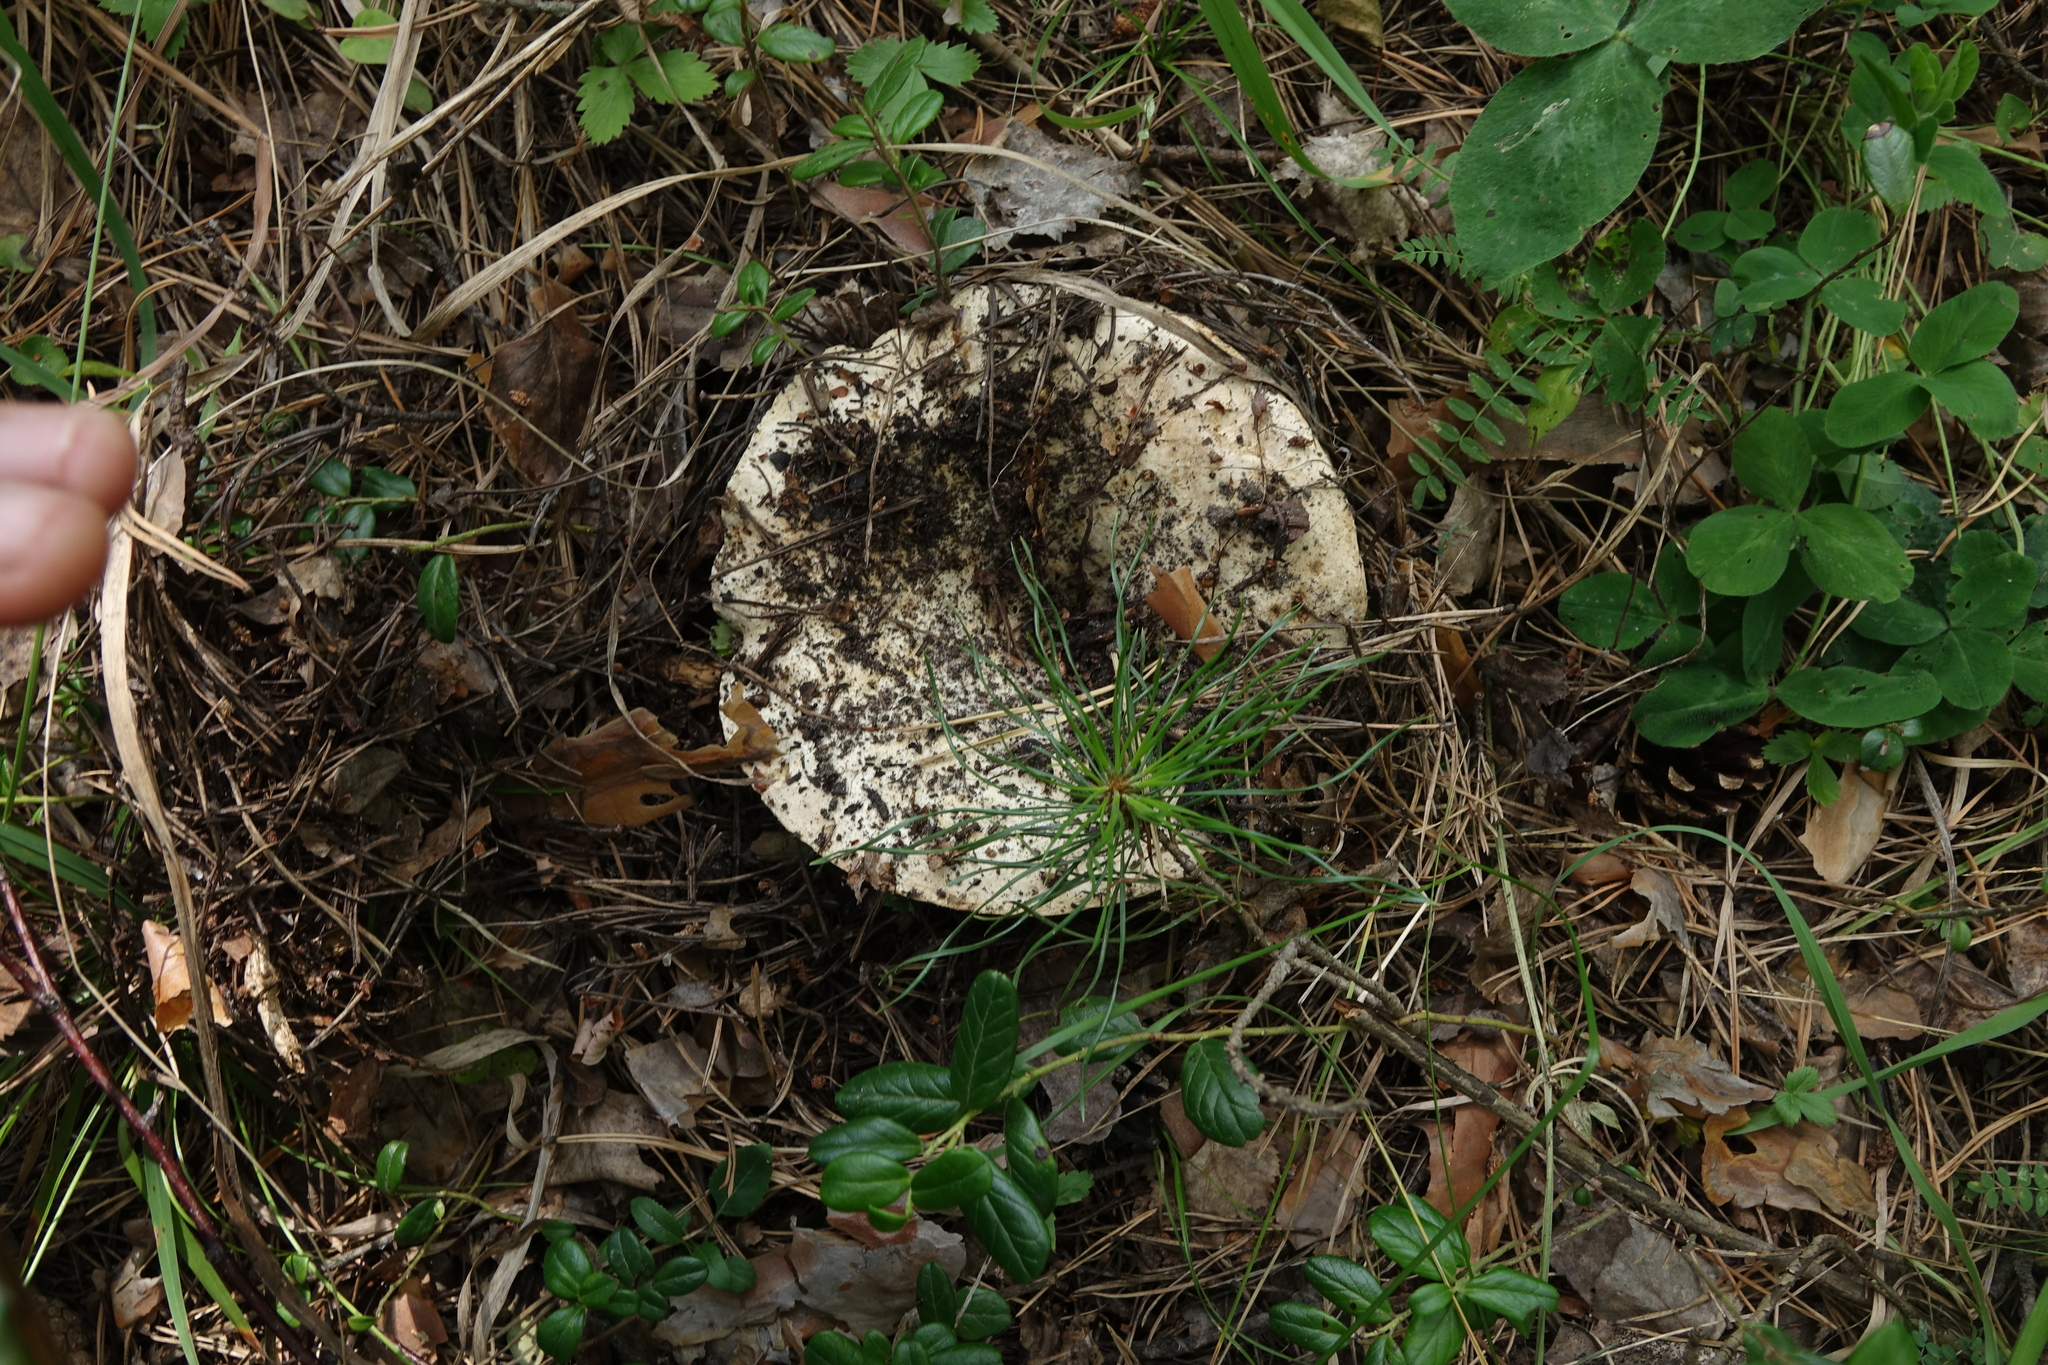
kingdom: Fungi
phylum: Basidiomycota
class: Agaricomycetes
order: Russulales
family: Russulaceae
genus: Russula
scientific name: Russula delica
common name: Milk white brittlegill
